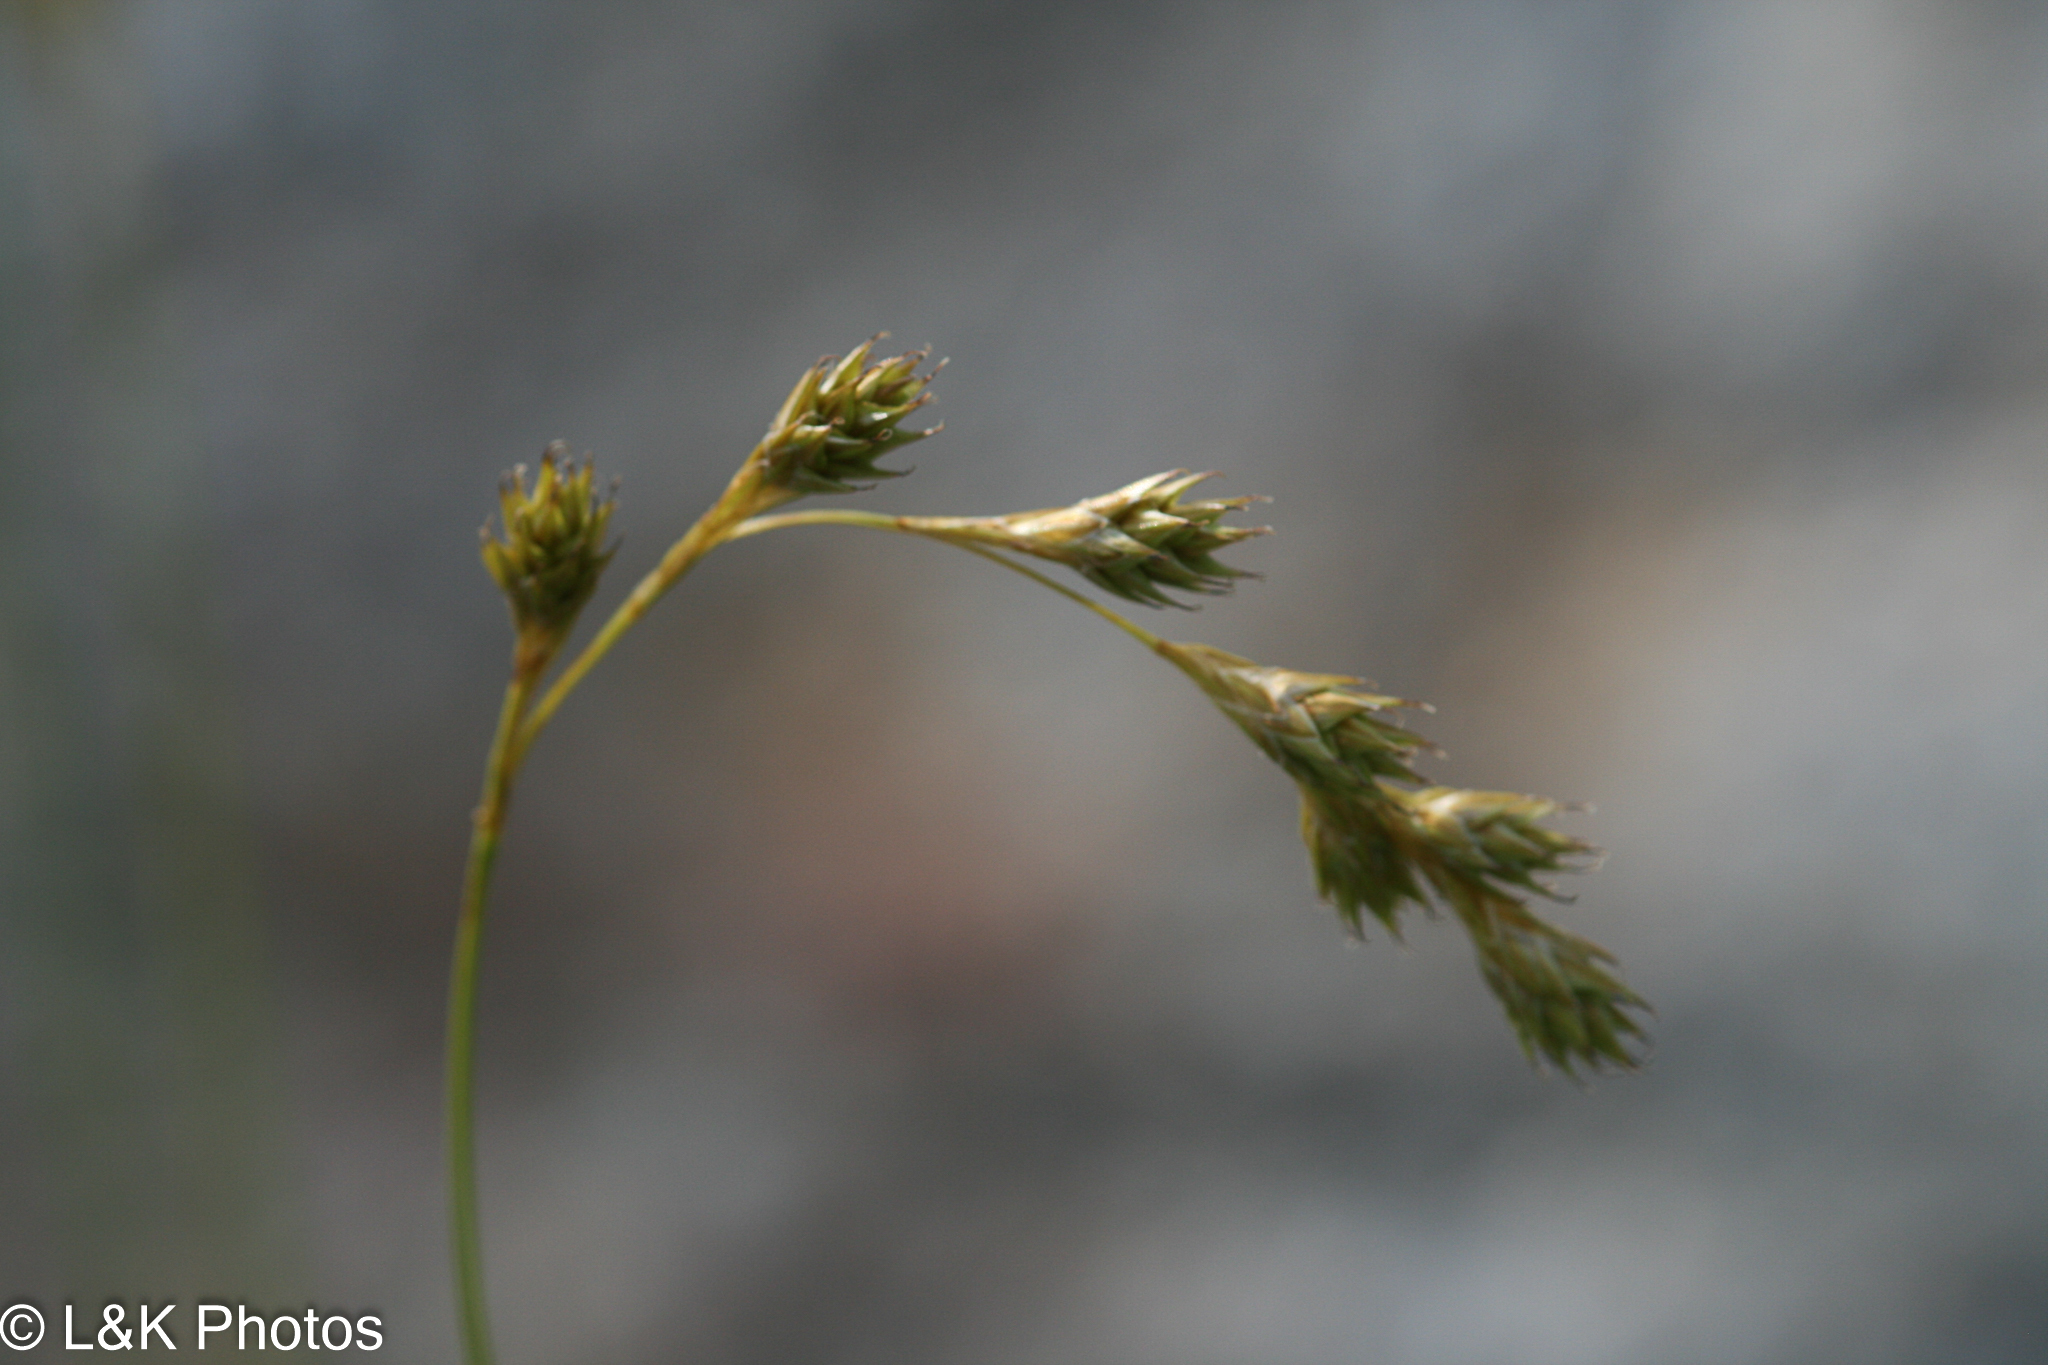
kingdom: Plantae
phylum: Tracheophyta
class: Liliopsida
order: Poales
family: Cyperaceae
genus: Carex
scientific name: Carex foenea
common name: Bronze sedge
